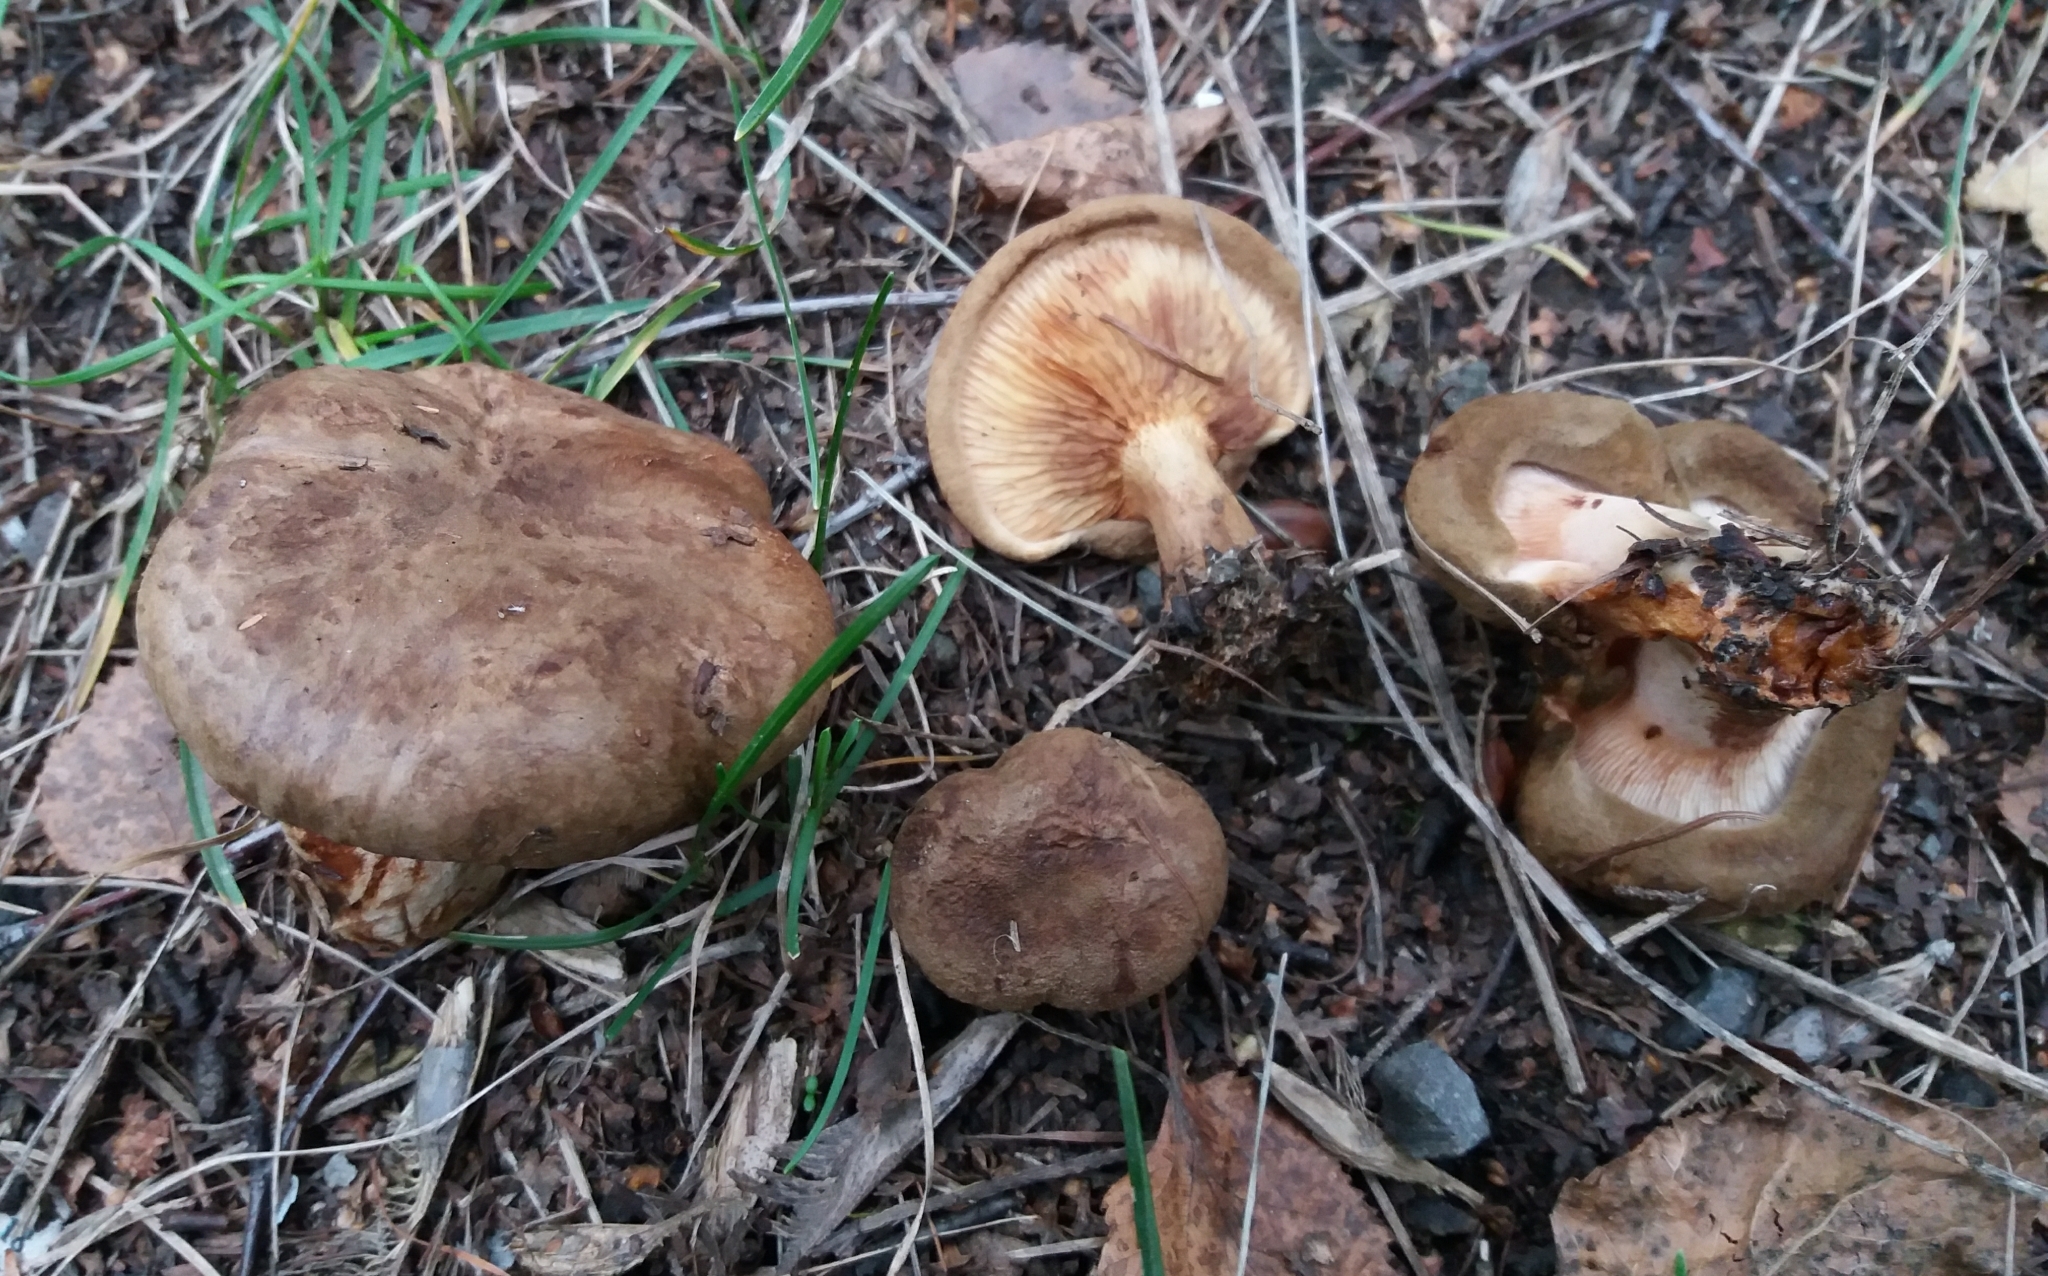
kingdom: Fungi
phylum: Basidiomycota
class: Agaricomycetes
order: Boletales
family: Paxillaceae
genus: Paxillus
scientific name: Paxillus involutus
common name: Brown roll rim
